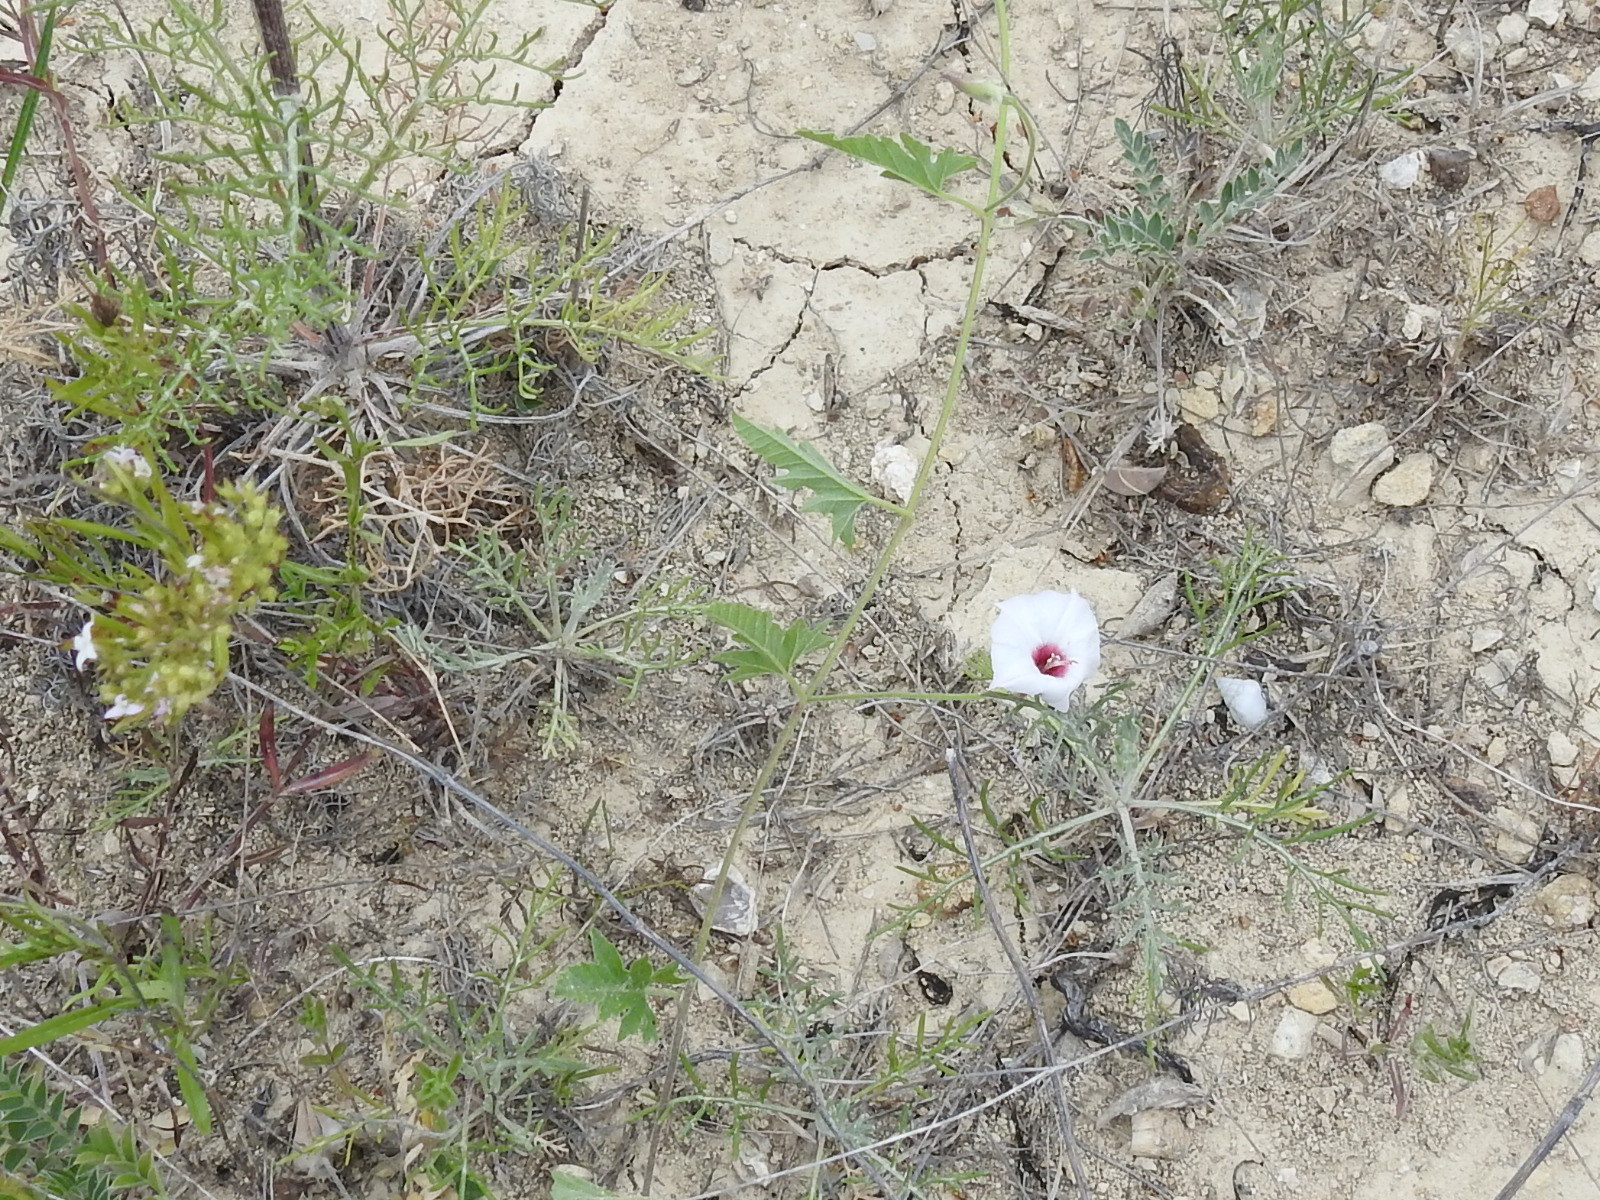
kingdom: Plantae
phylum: Tracheophyta
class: Magnoliopsida
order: Solanales
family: Convolvulaceae
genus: Convolvulus
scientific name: Convolvulus equitans
